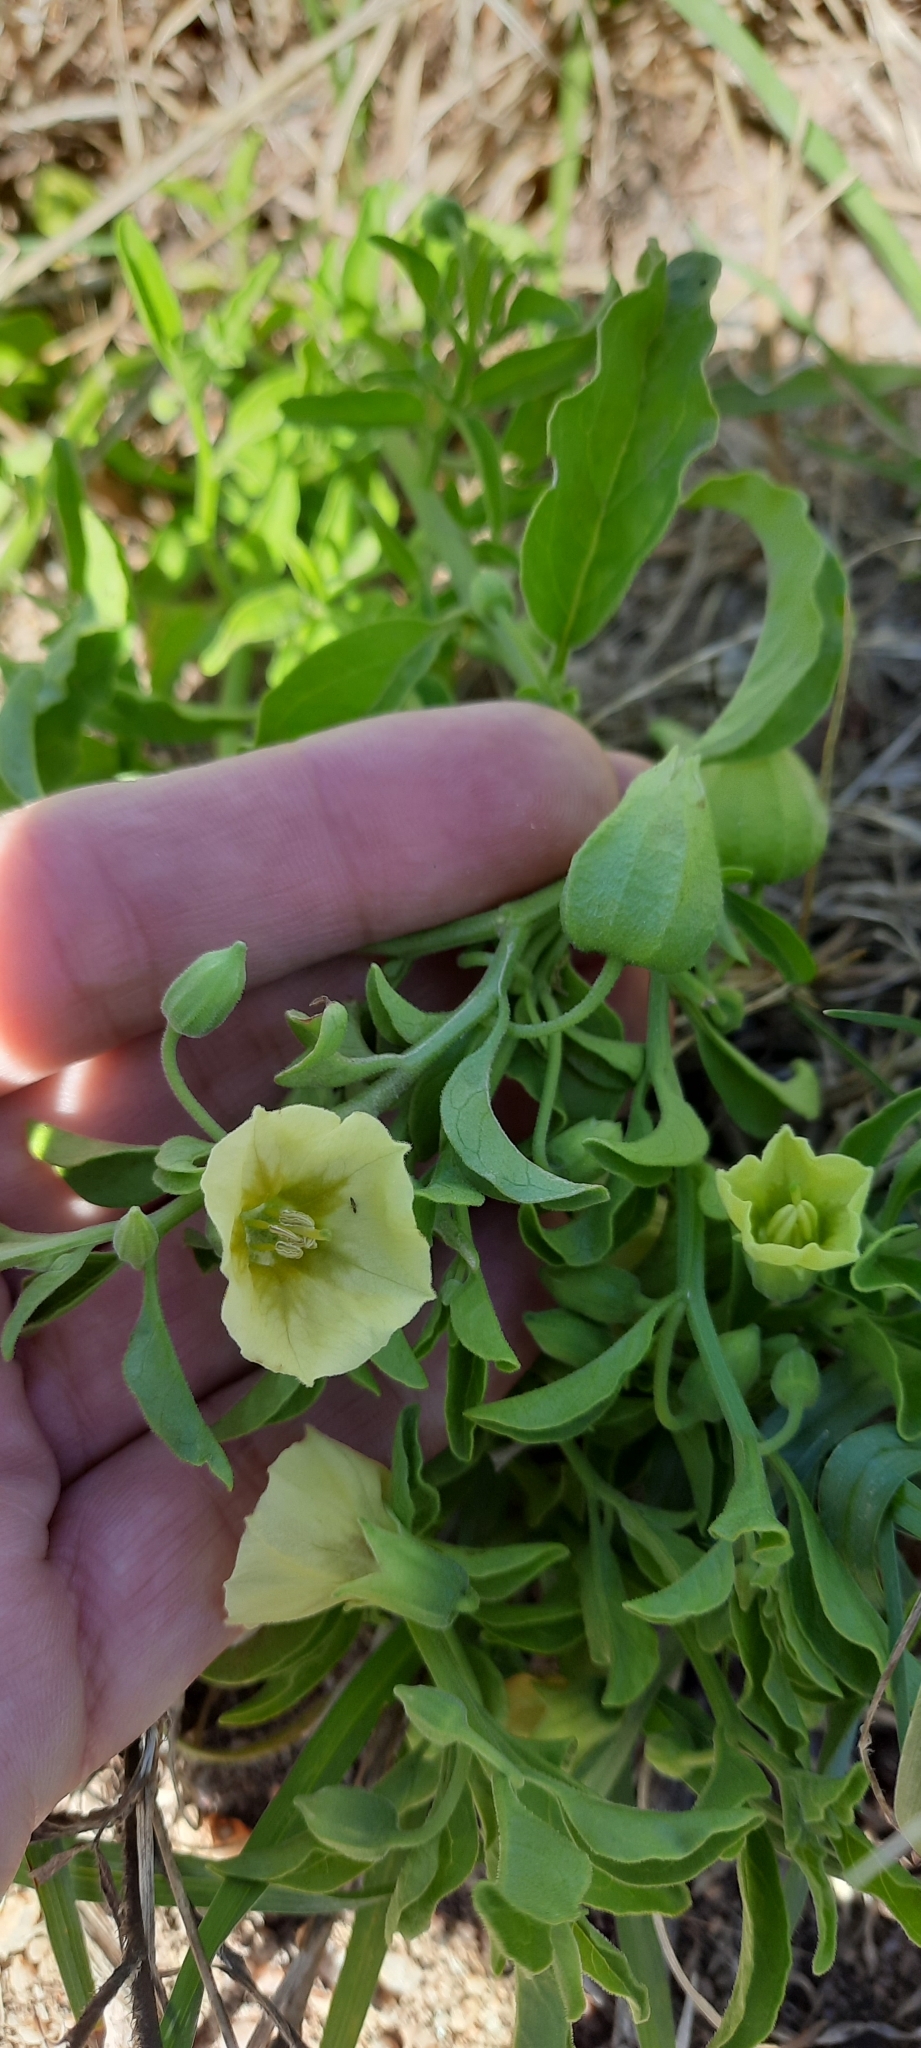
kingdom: Plantae
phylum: Tracheophyta
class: Magnoliopsida
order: Solanales
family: Solanaceae
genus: Physalis
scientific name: Physalis viscosa
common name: Stellate ground-cherry
